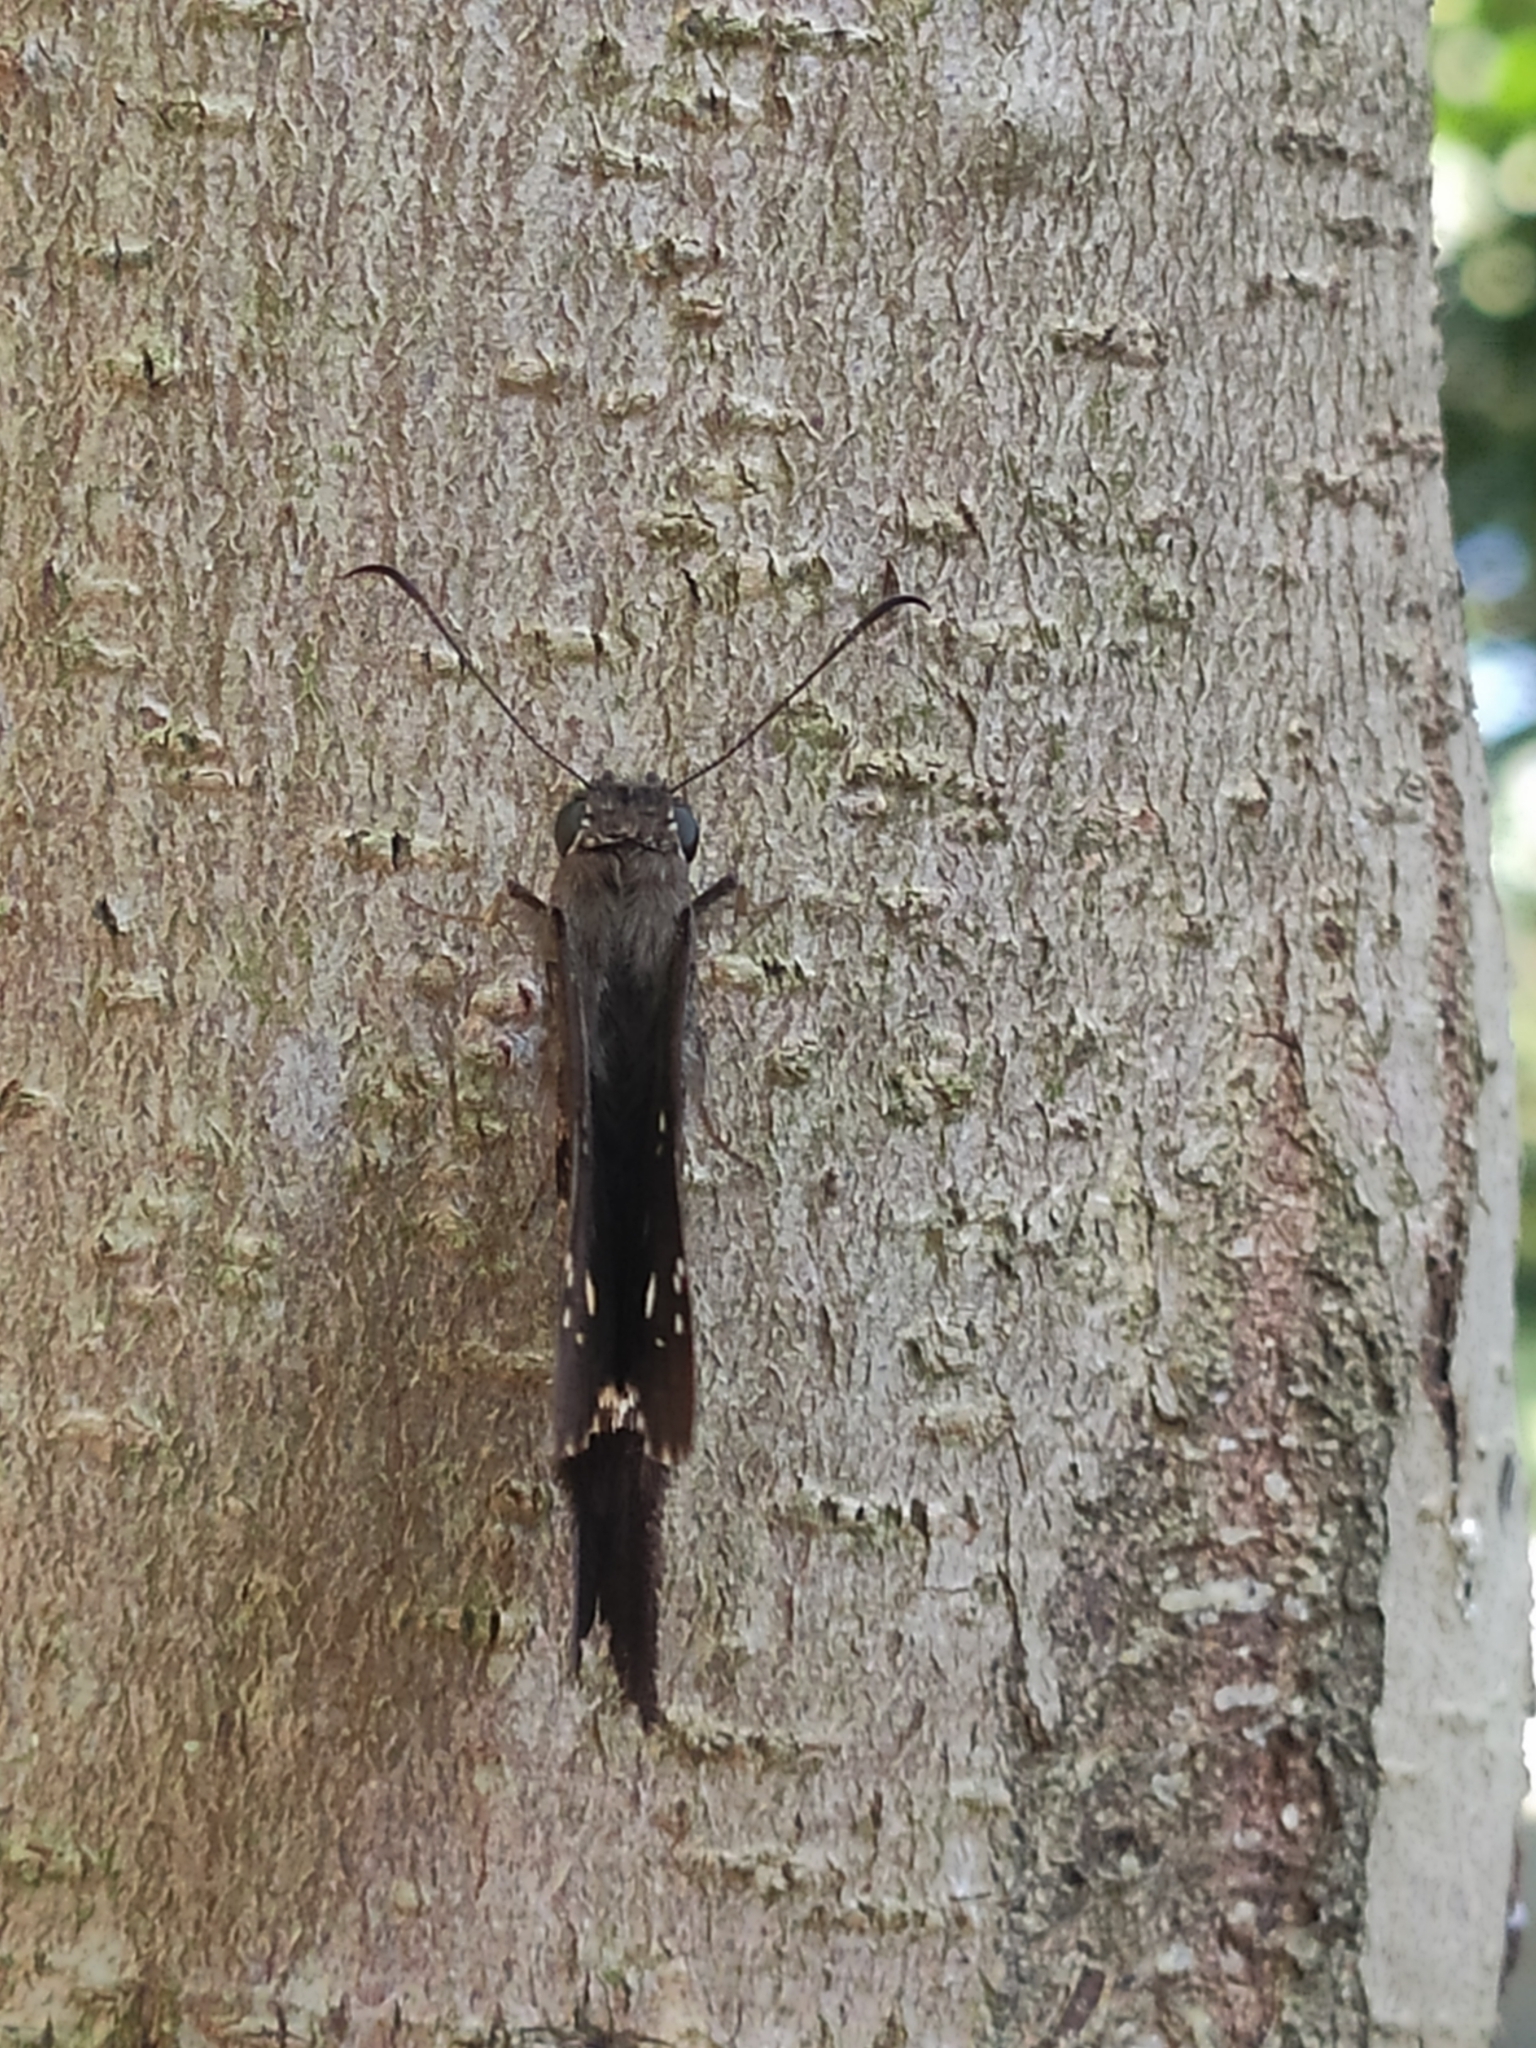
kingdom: Animalia
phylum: Arthropoda
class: Insecta
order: Lepidoptera
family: Hesperiidae
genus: Thorybes
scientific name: Thorybes
